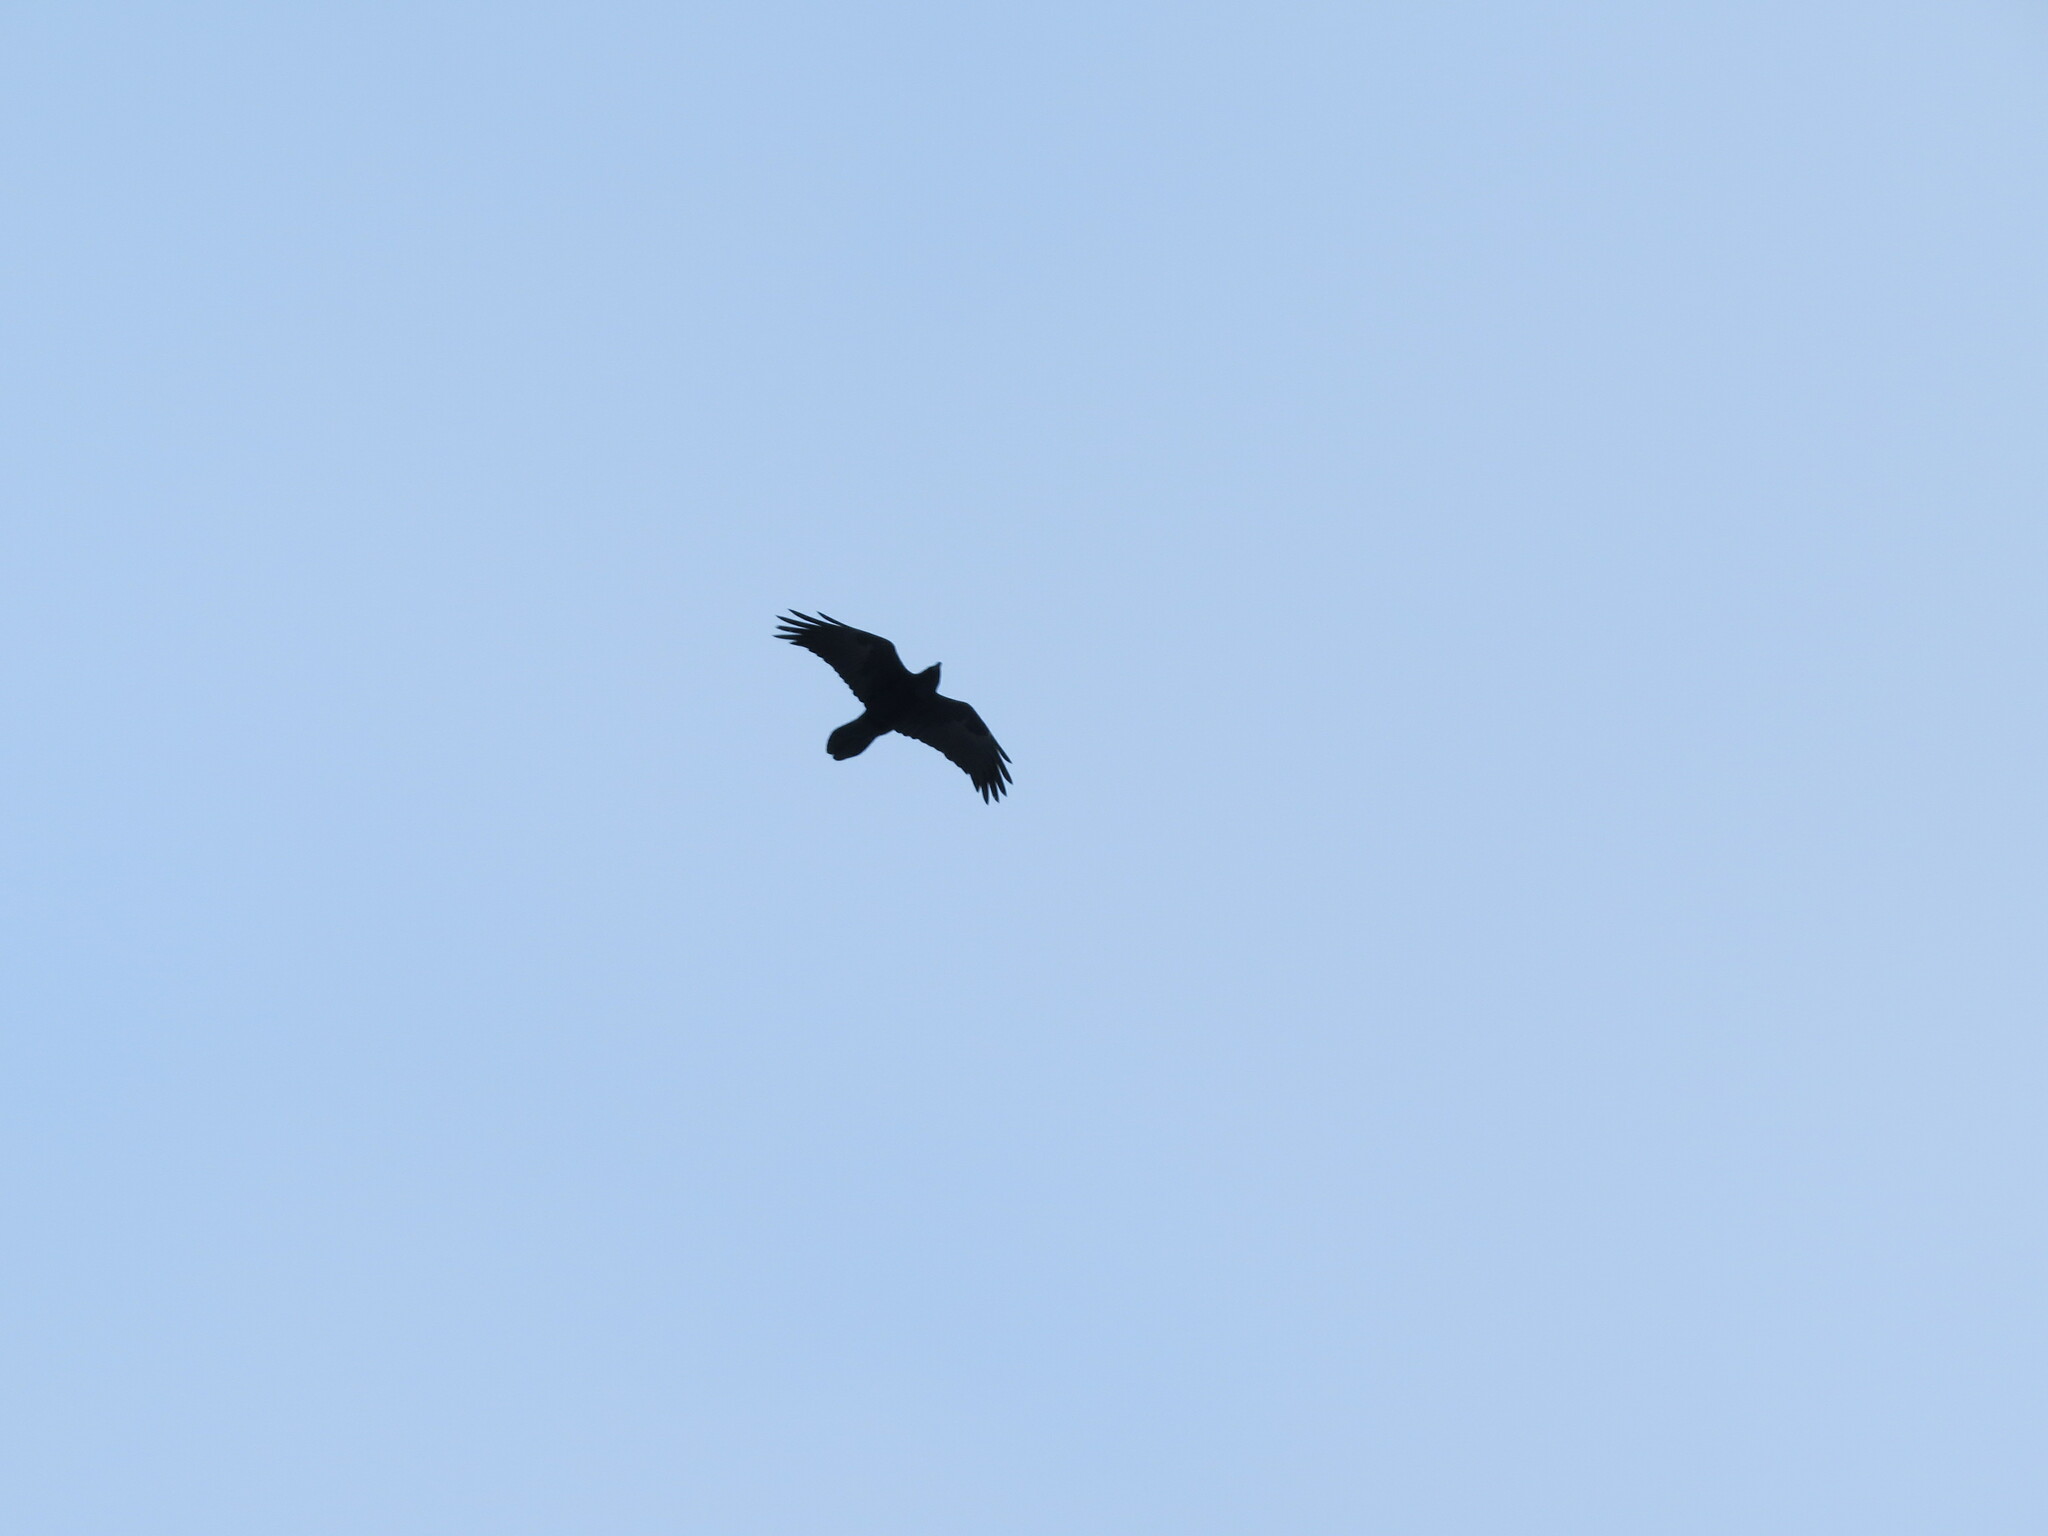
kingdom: Animalia
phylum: Chordata
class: Aves
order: Passeriformes
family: Corvidae
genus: Corvus
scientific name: Corvus corax
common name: Common raven
